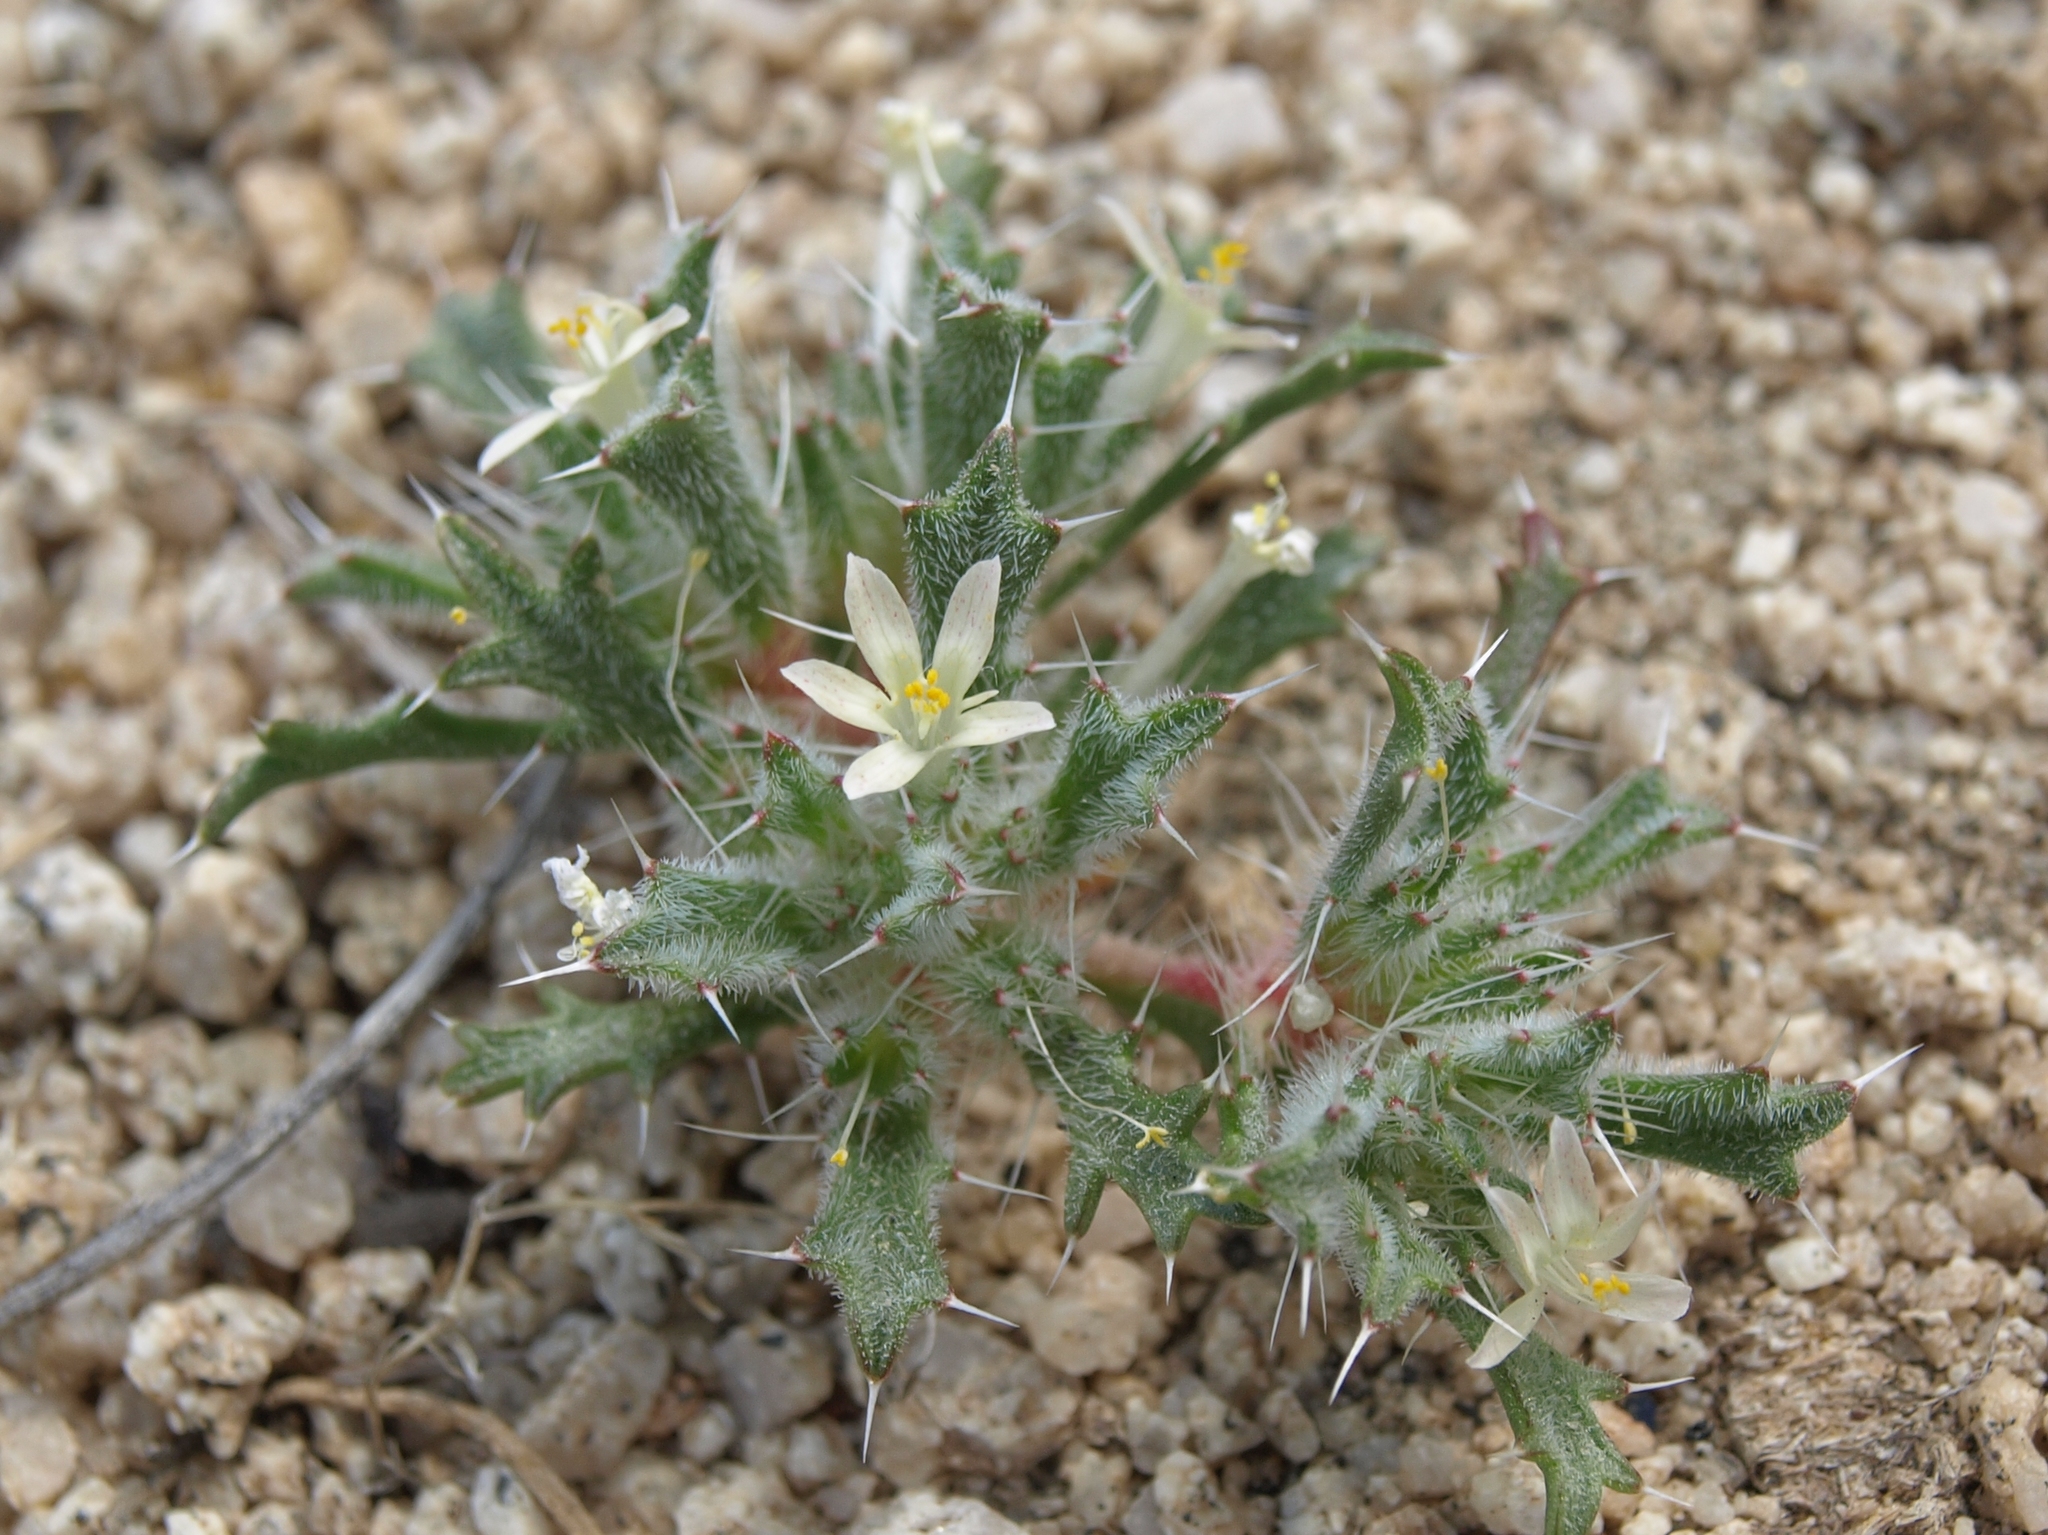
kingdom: Plantae
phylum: Tracheophyta
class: Magnoliopsida
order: Ericales
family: Polemoniaceae
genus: Loeseliastrum
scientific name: Loeseliastrum schottii
